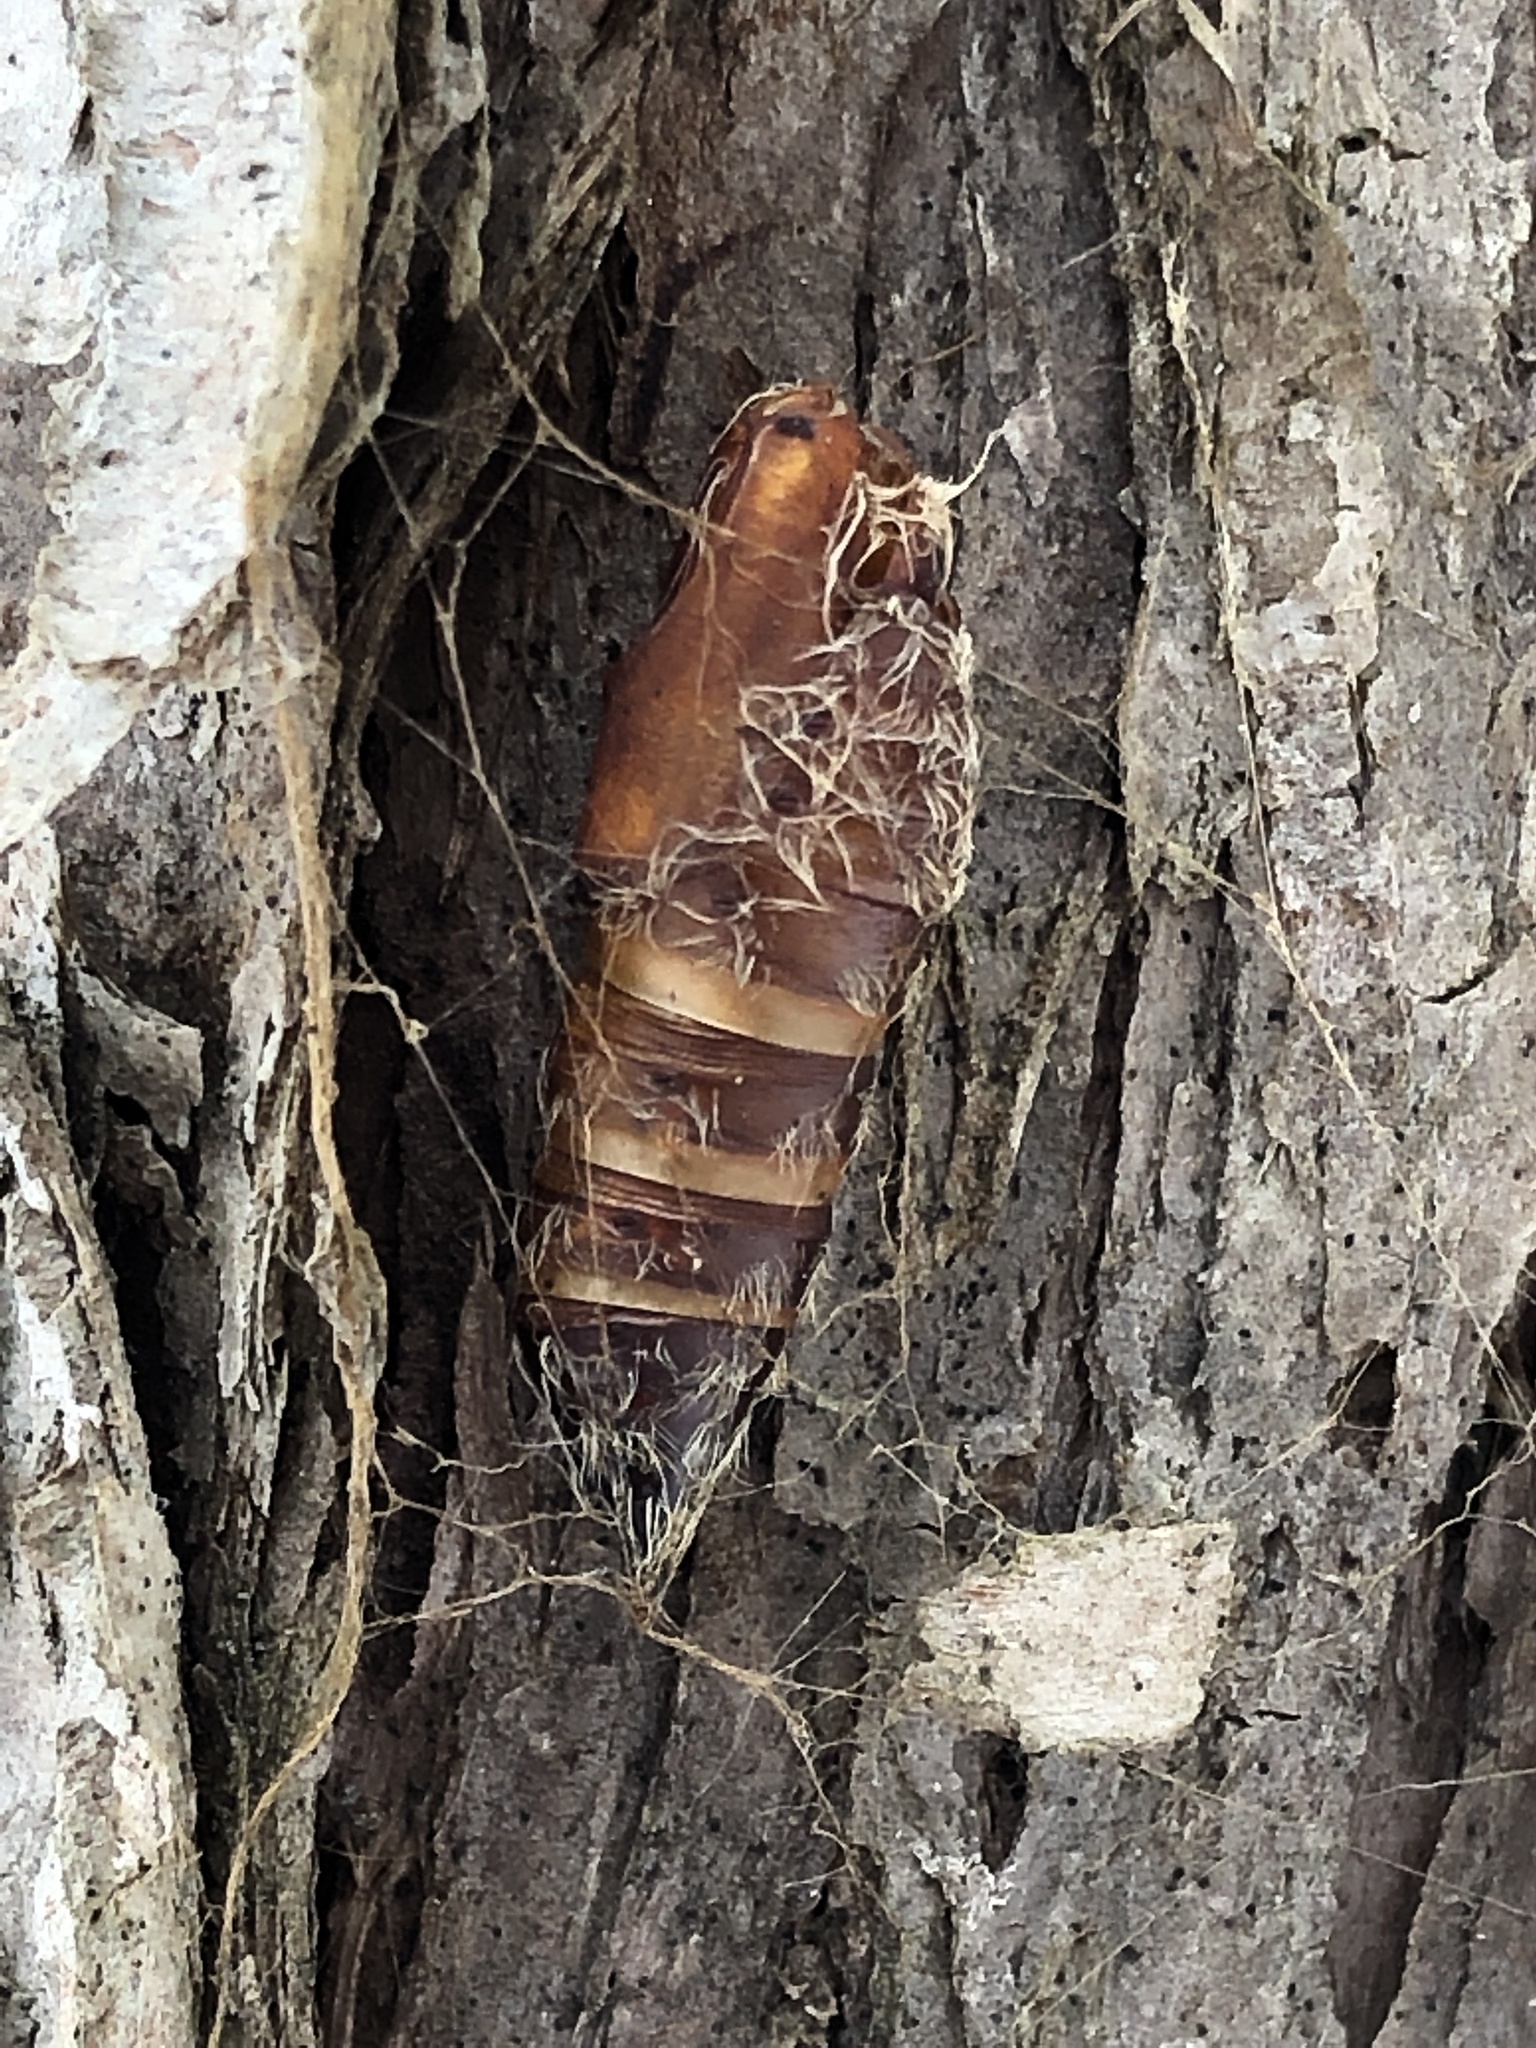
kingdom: Animalia
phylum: Arthropoda
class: Insecta
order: Lepidoptera
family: Erebidae
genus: Lymantria
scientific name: Lymantria dispar
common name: Gypsy moth
